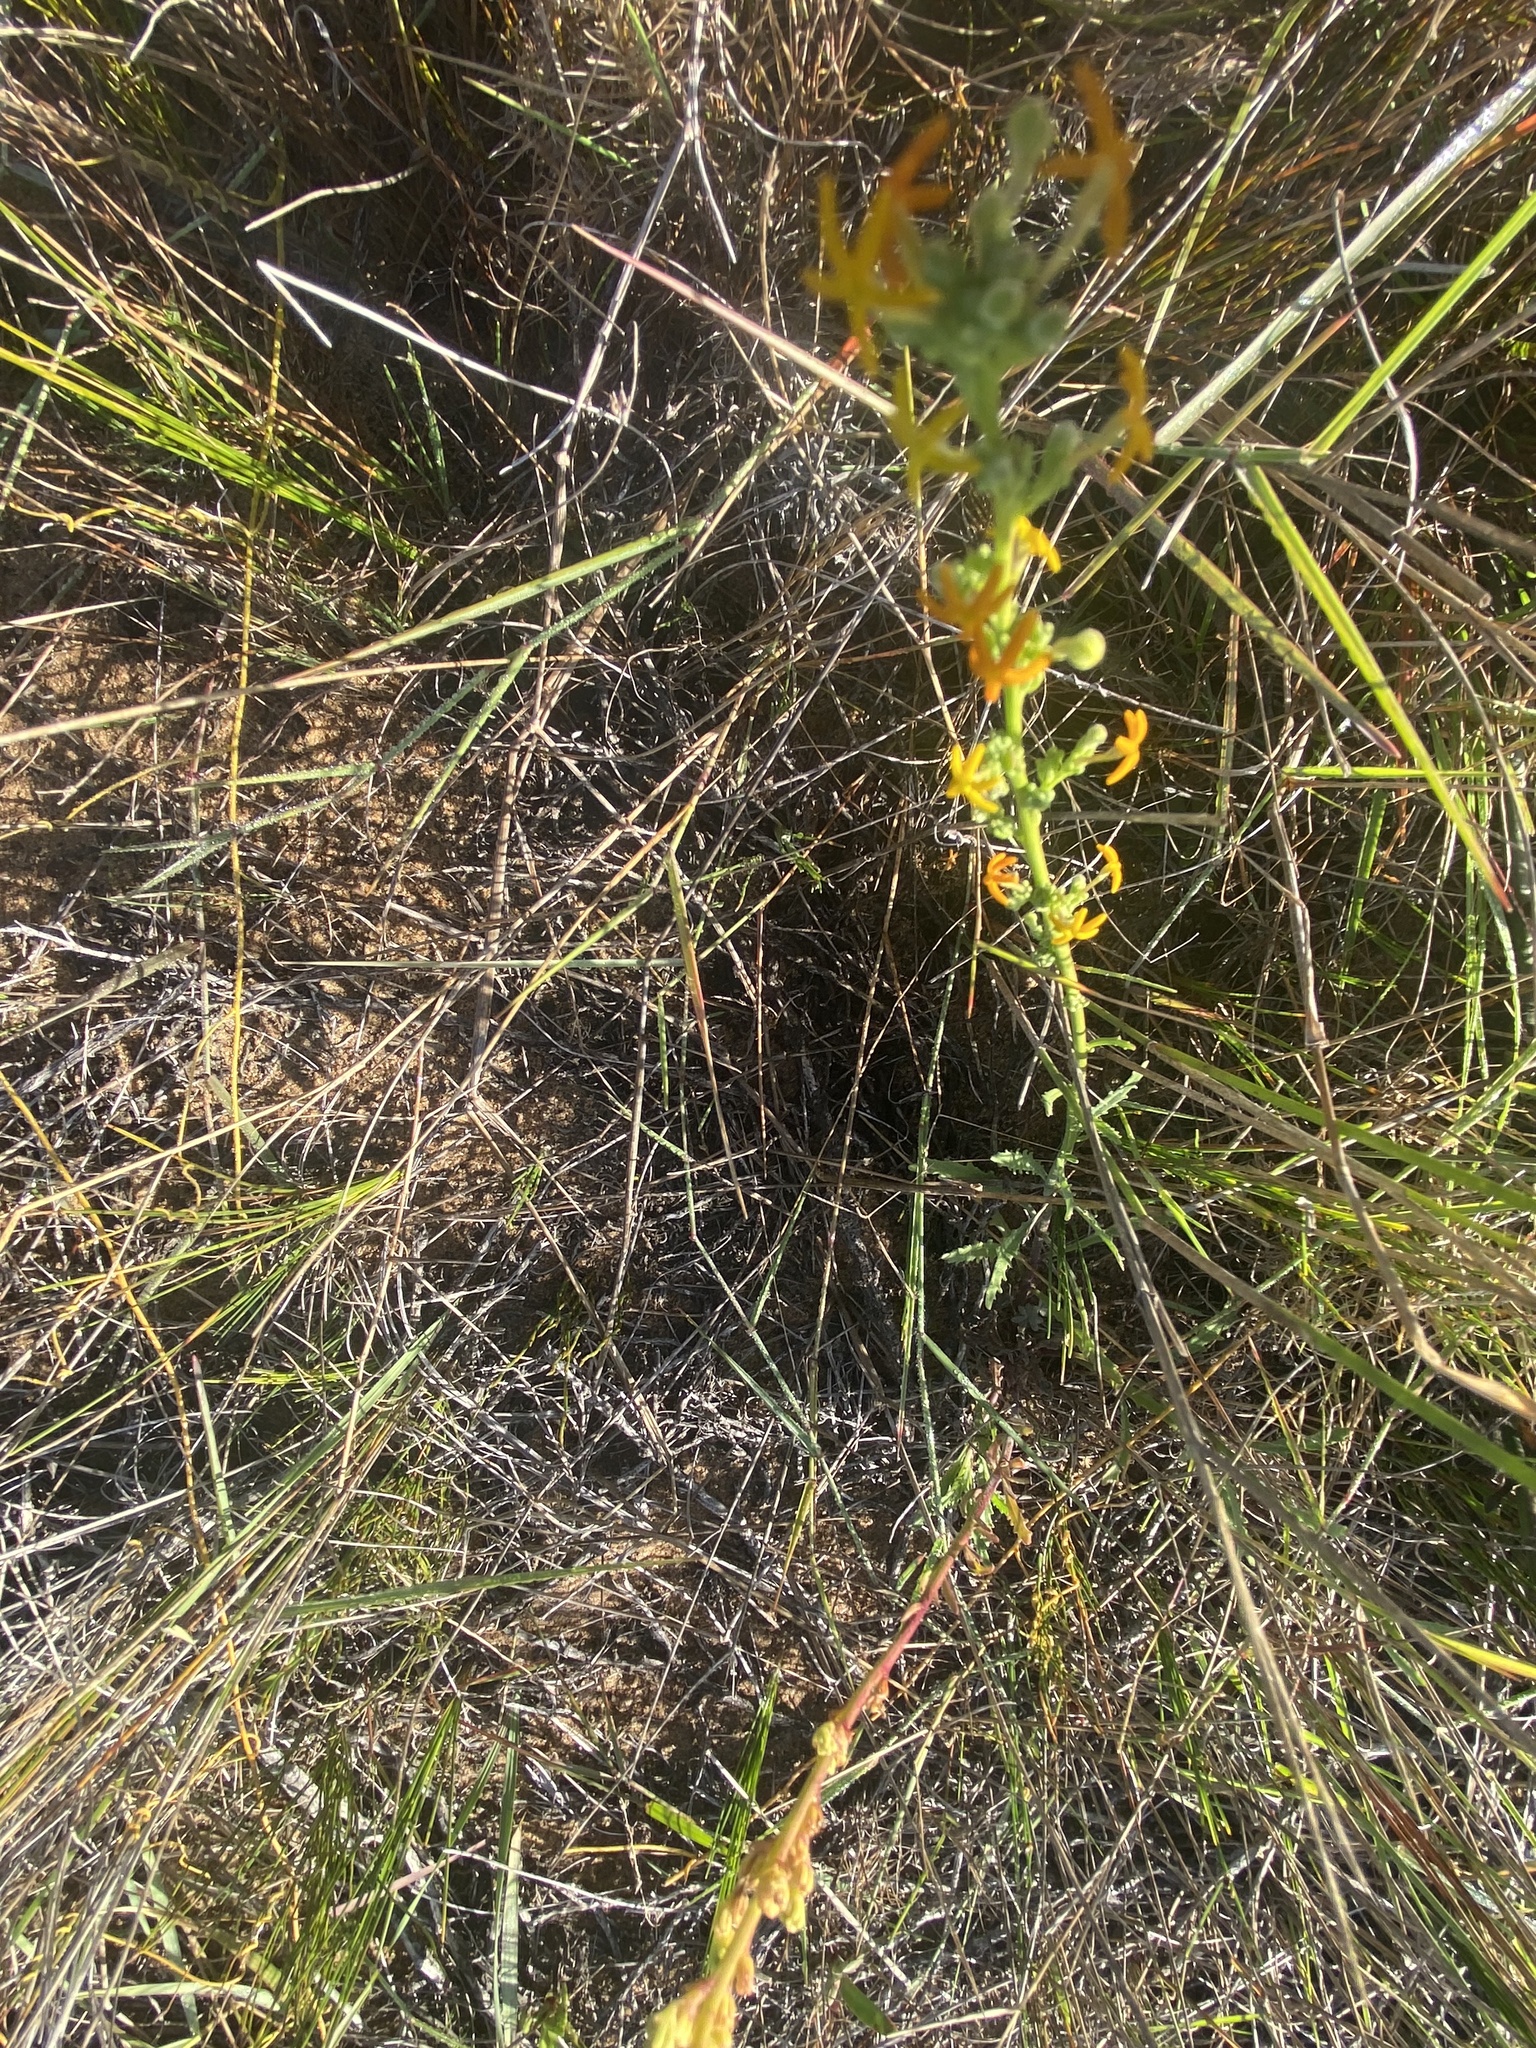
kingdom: Plantae
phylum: Tracheophyta
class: Magnoliopsida
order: Lamiales
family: Scrophulariaceae
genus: Manulea
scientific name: Manulea rubra
